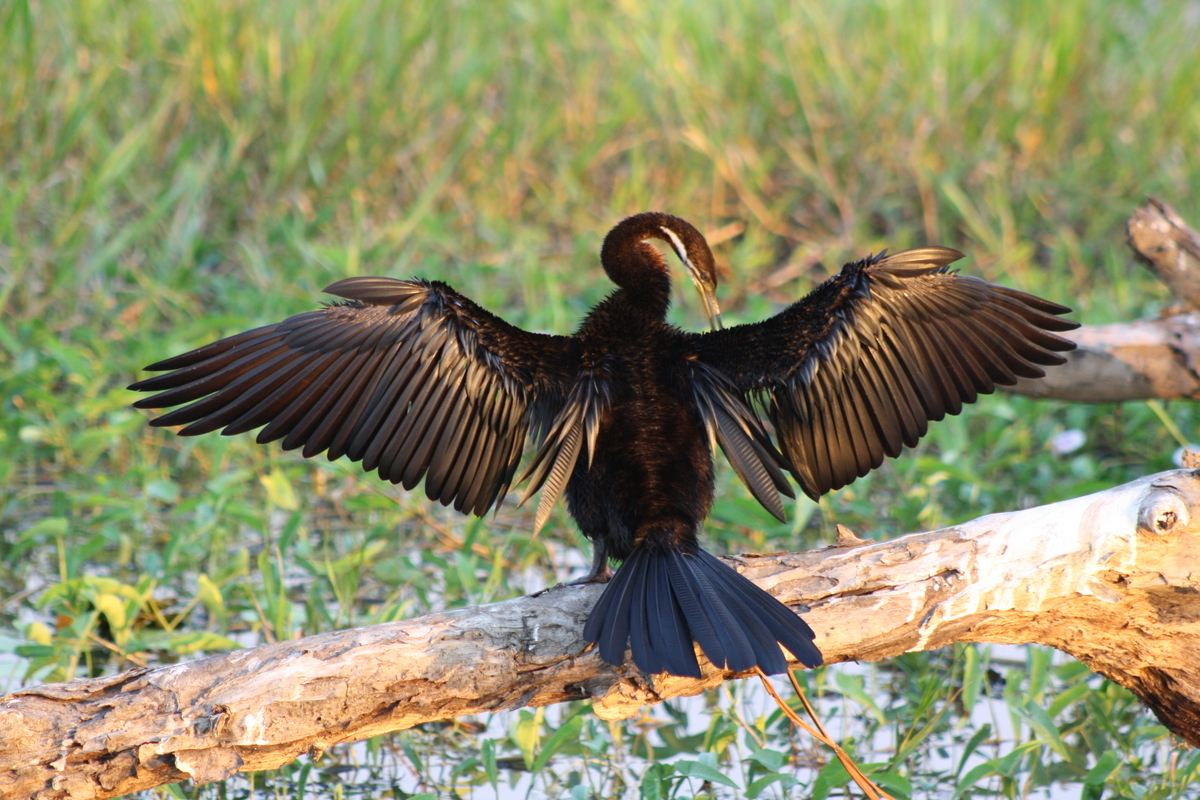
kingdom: Animalia
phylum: Chordata
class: Aves
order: Suliformes
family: Anhingidae
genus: Anhinga
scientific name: Anhinga novaehollandiae
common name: Australasian darter
